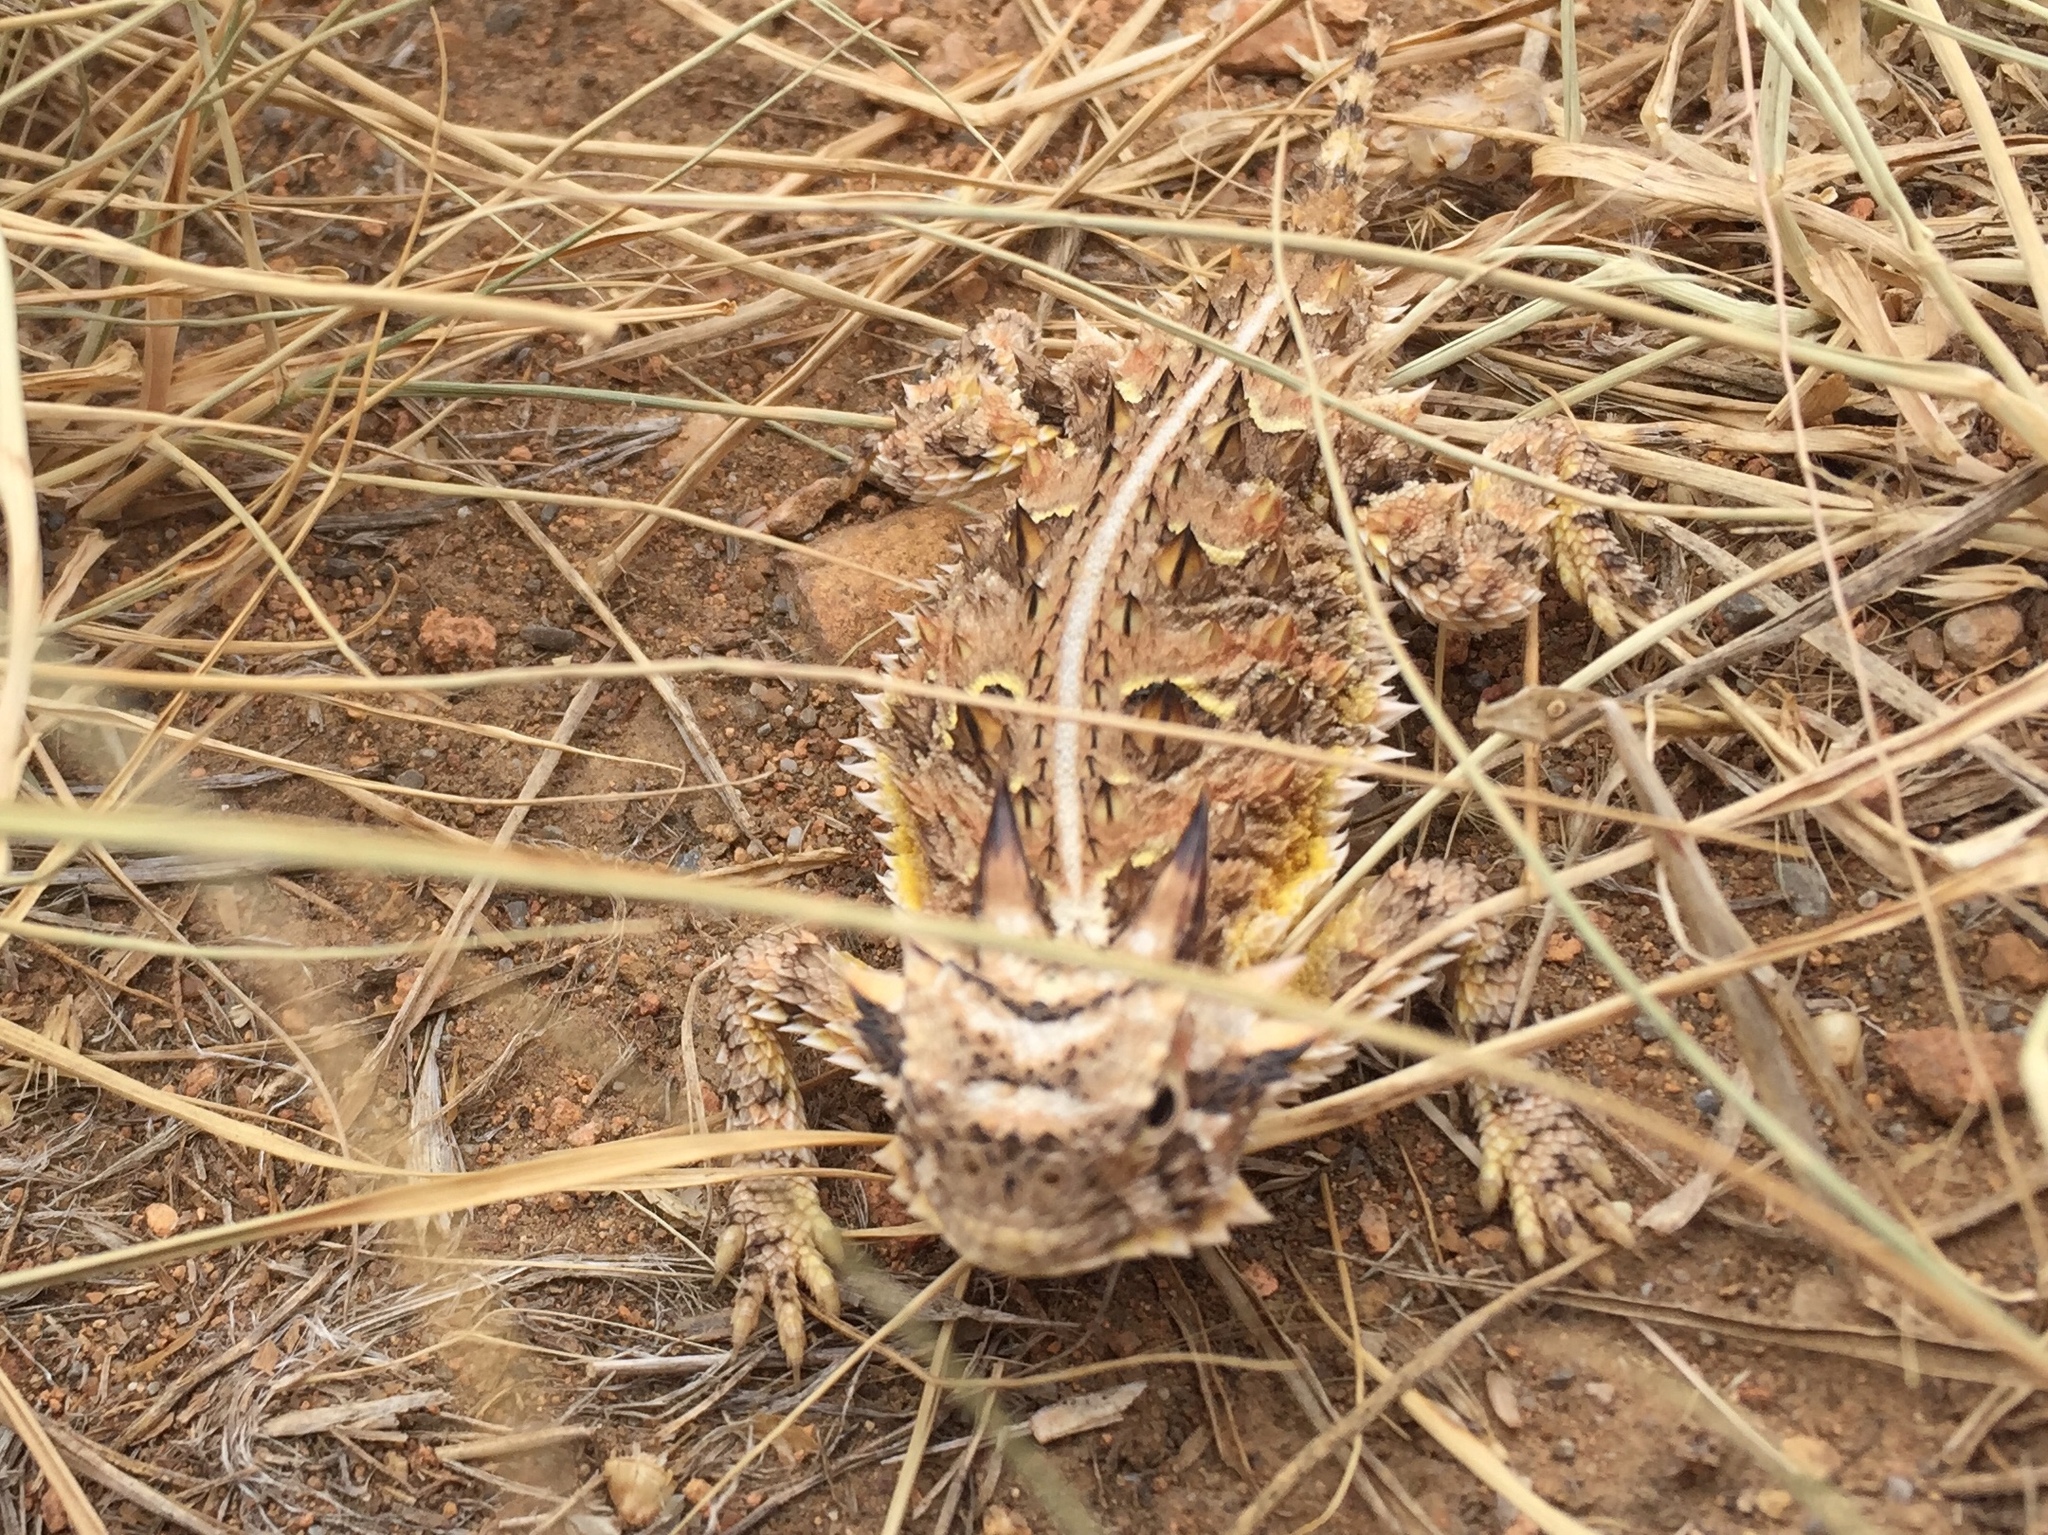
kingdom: Animalia
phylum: Chordata
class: Squamata
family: Phrynosomatidae
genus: Phrynosoma
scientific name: Phrynosoma cornutum
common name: Texas horned lizard
